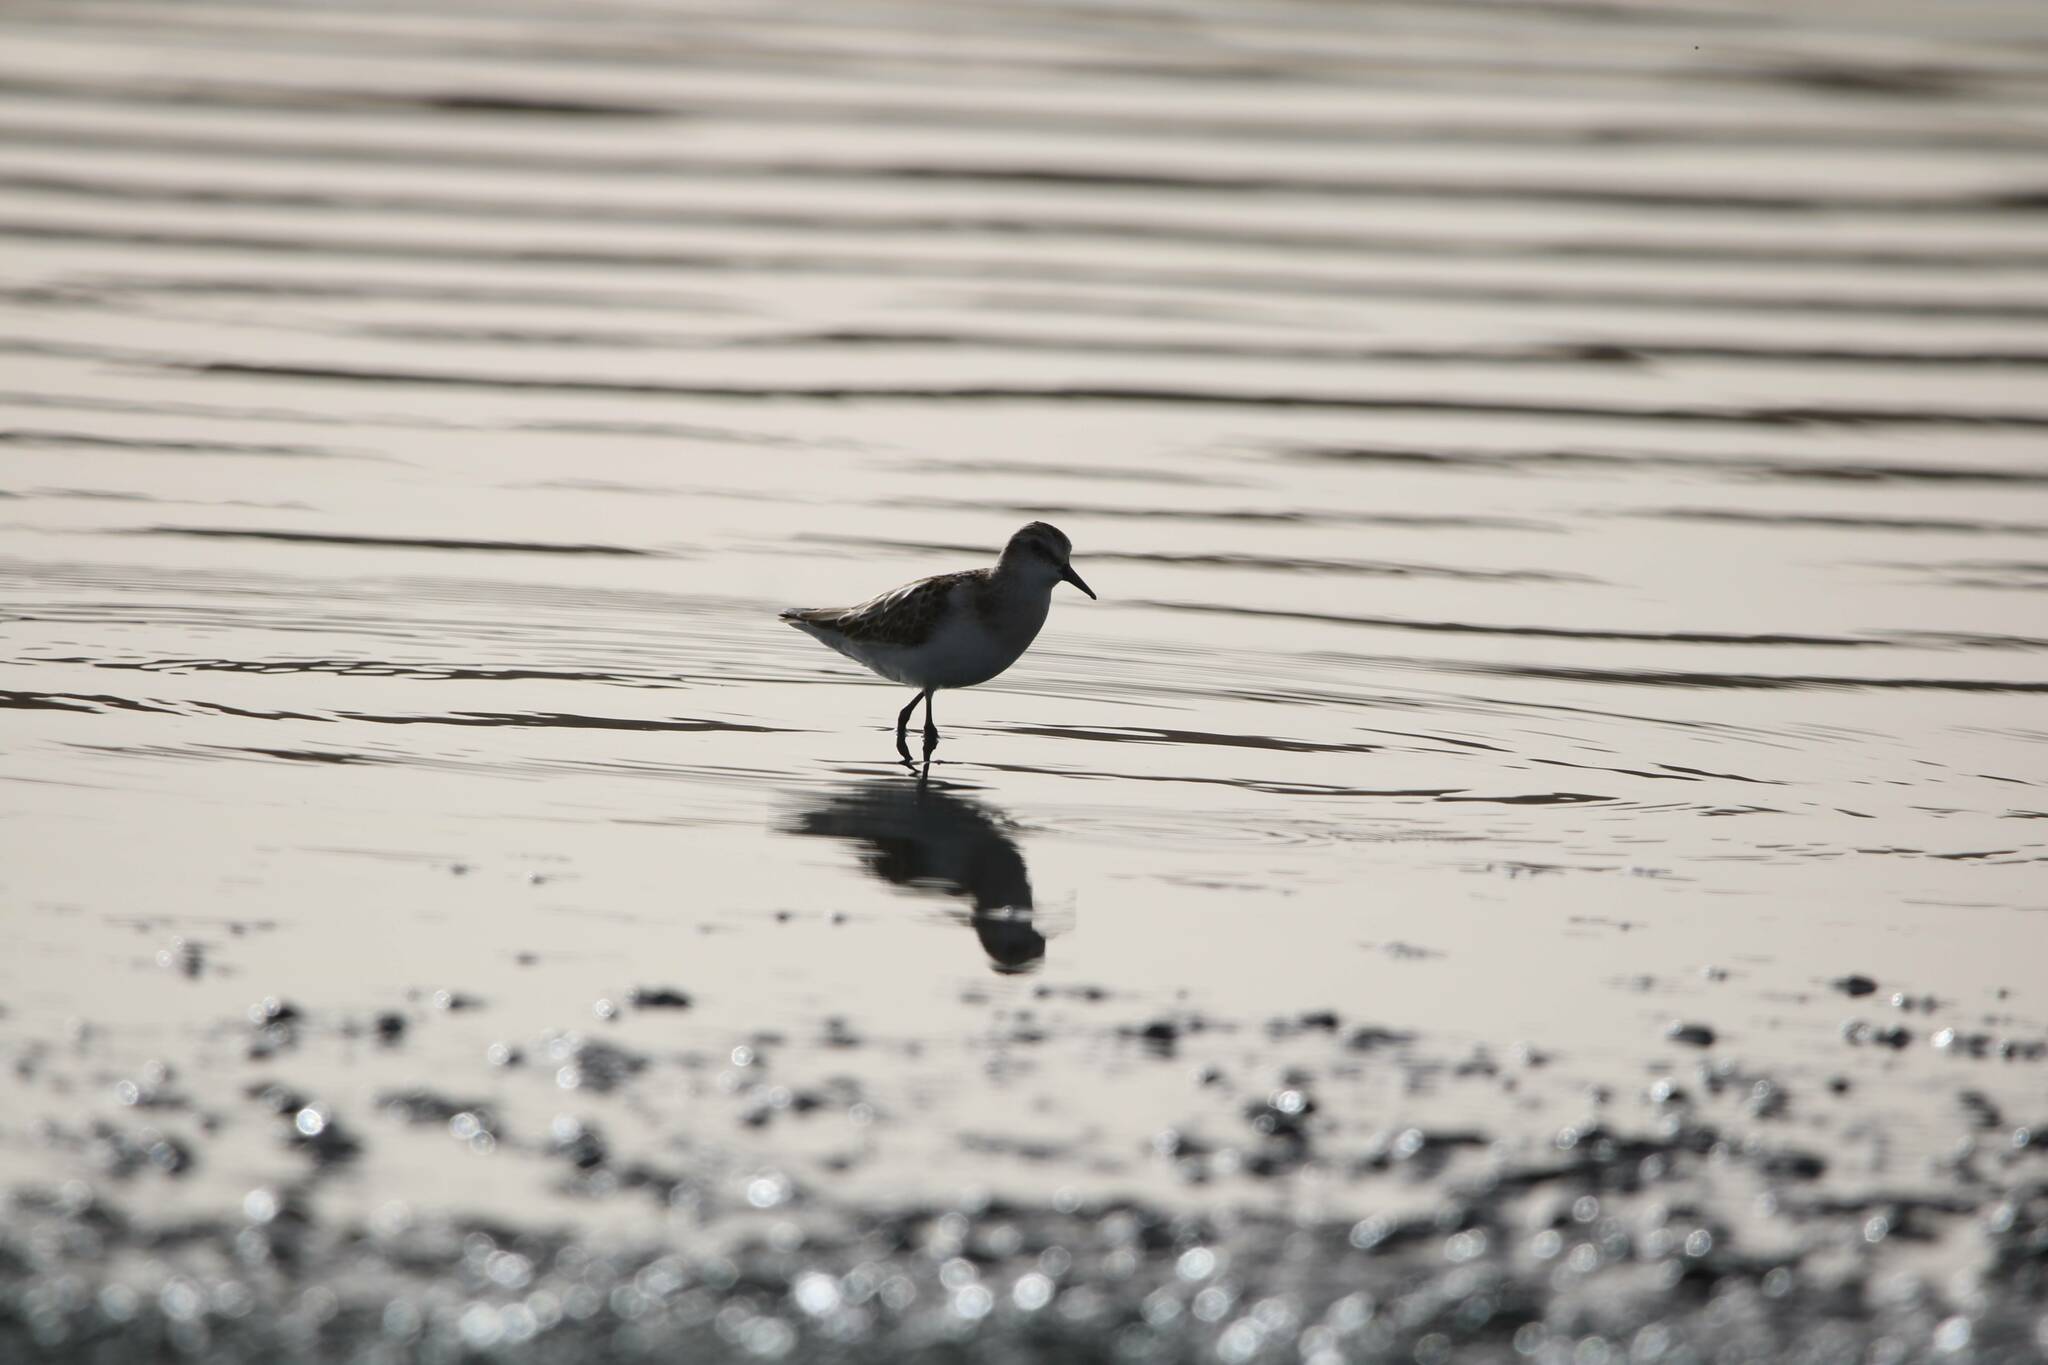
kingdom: Animalia
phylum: Chordata
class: Aves
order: Charadriiformes
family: Scolopacidae
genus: Calidris
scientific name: Calidris minuta
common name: Little stint
